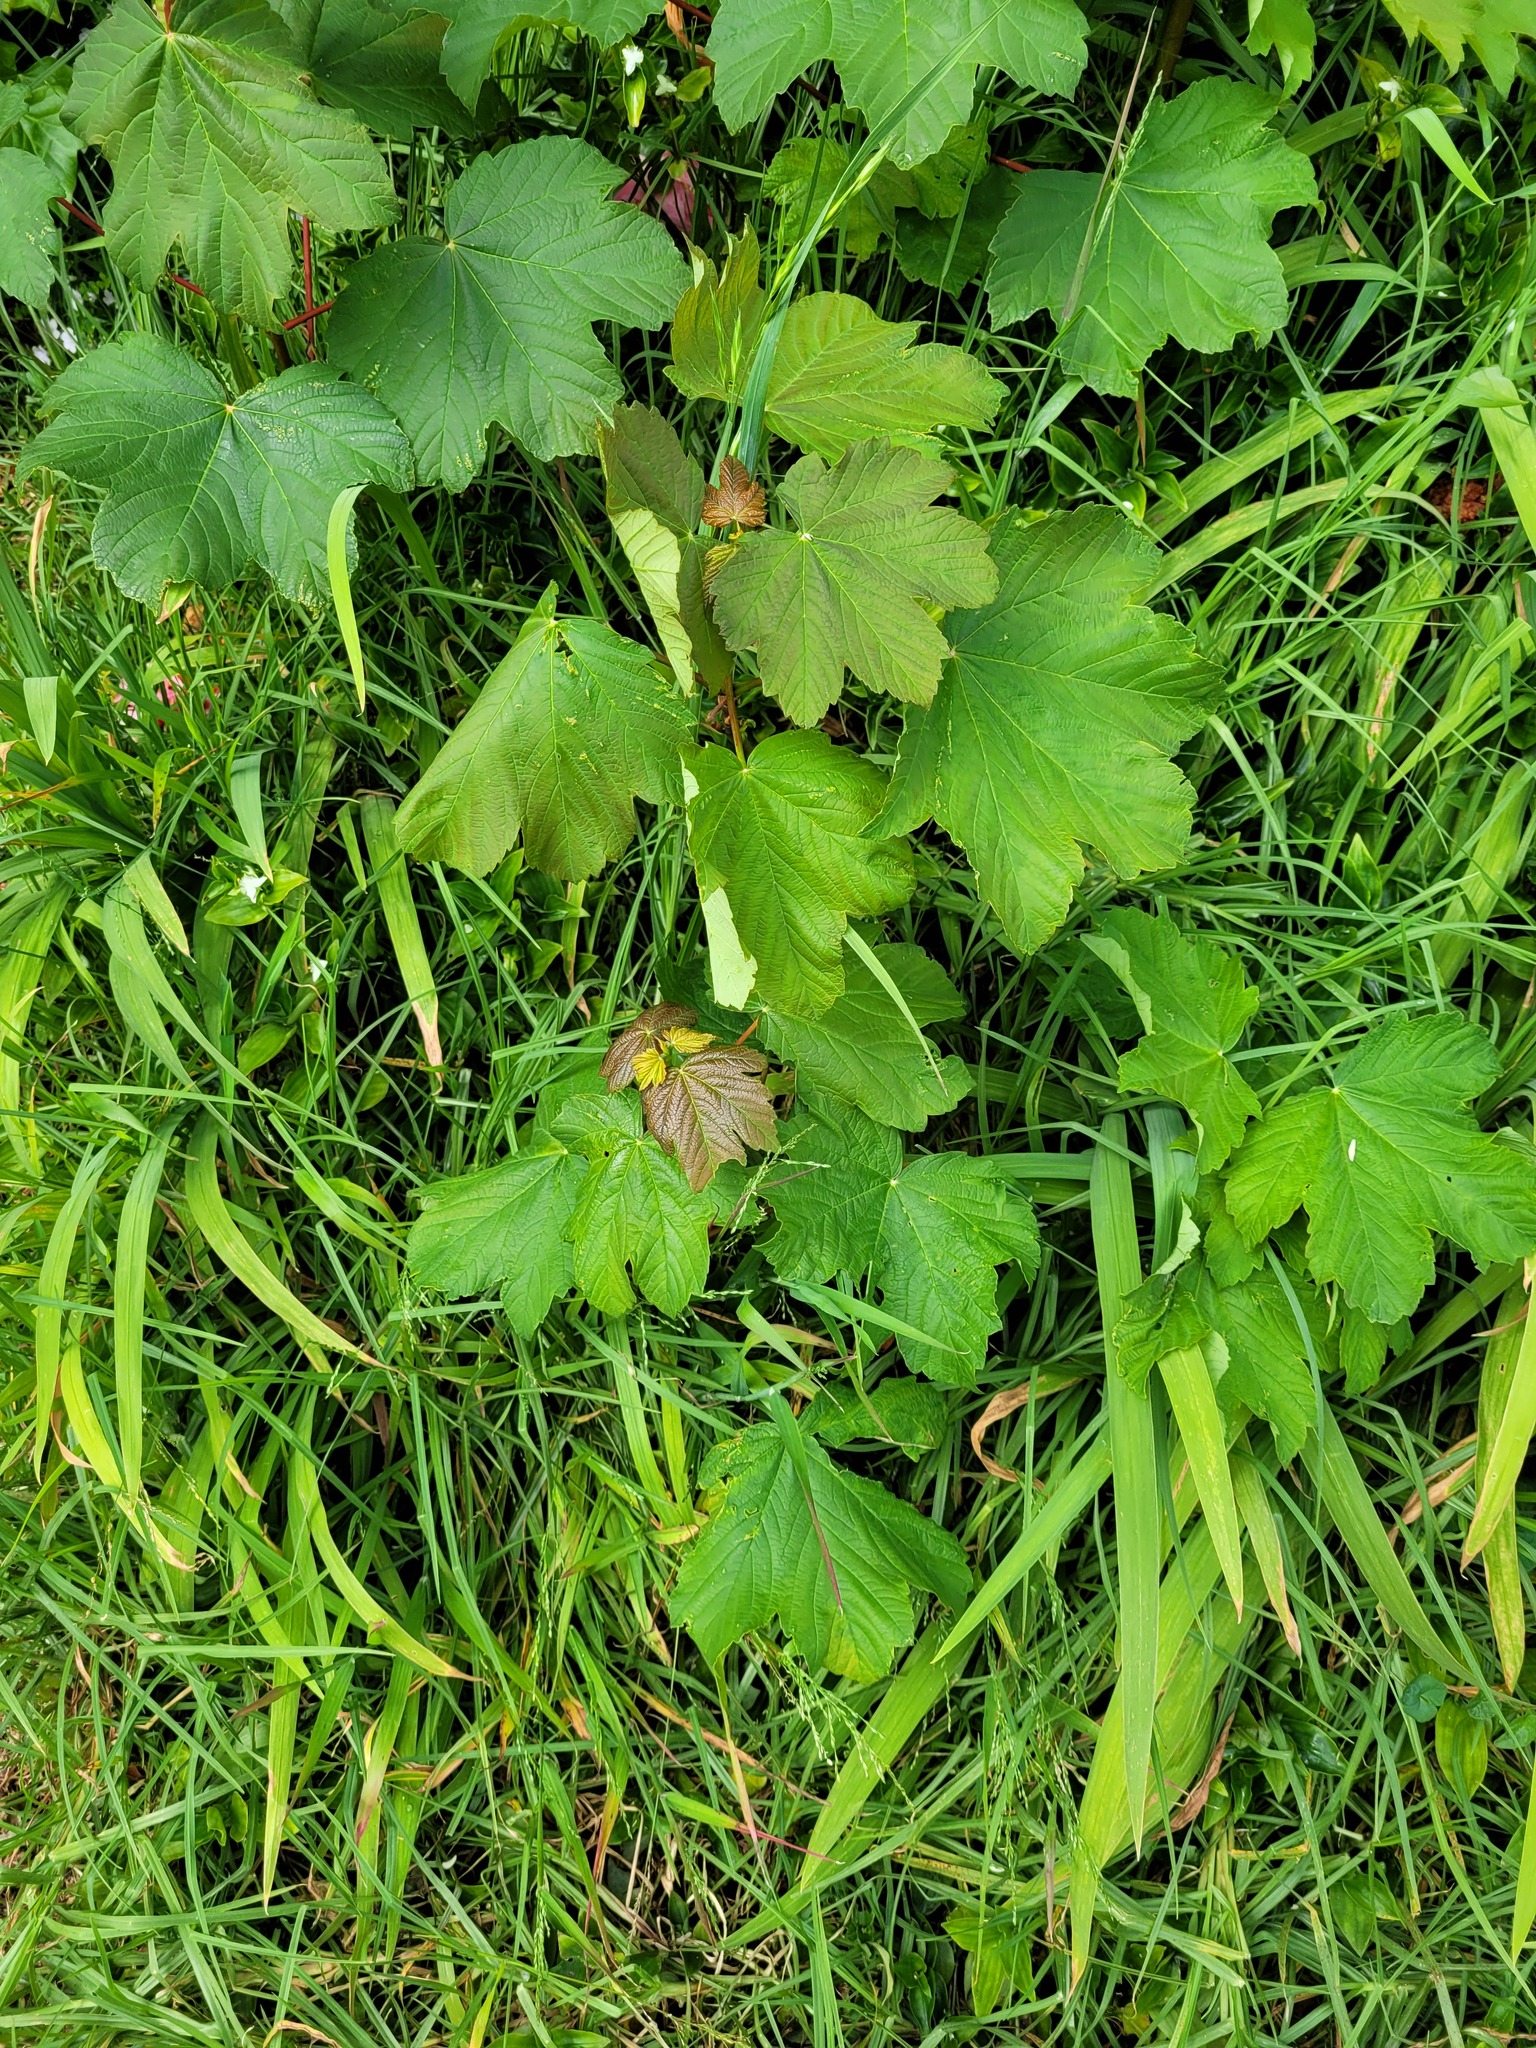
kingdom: Plantae
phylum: Tracheophyta
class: Magnoliopsida
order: Sapindales
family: Sapindaceae
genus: Acer
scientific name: Acer pseudoplatanus
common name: Sycamore
